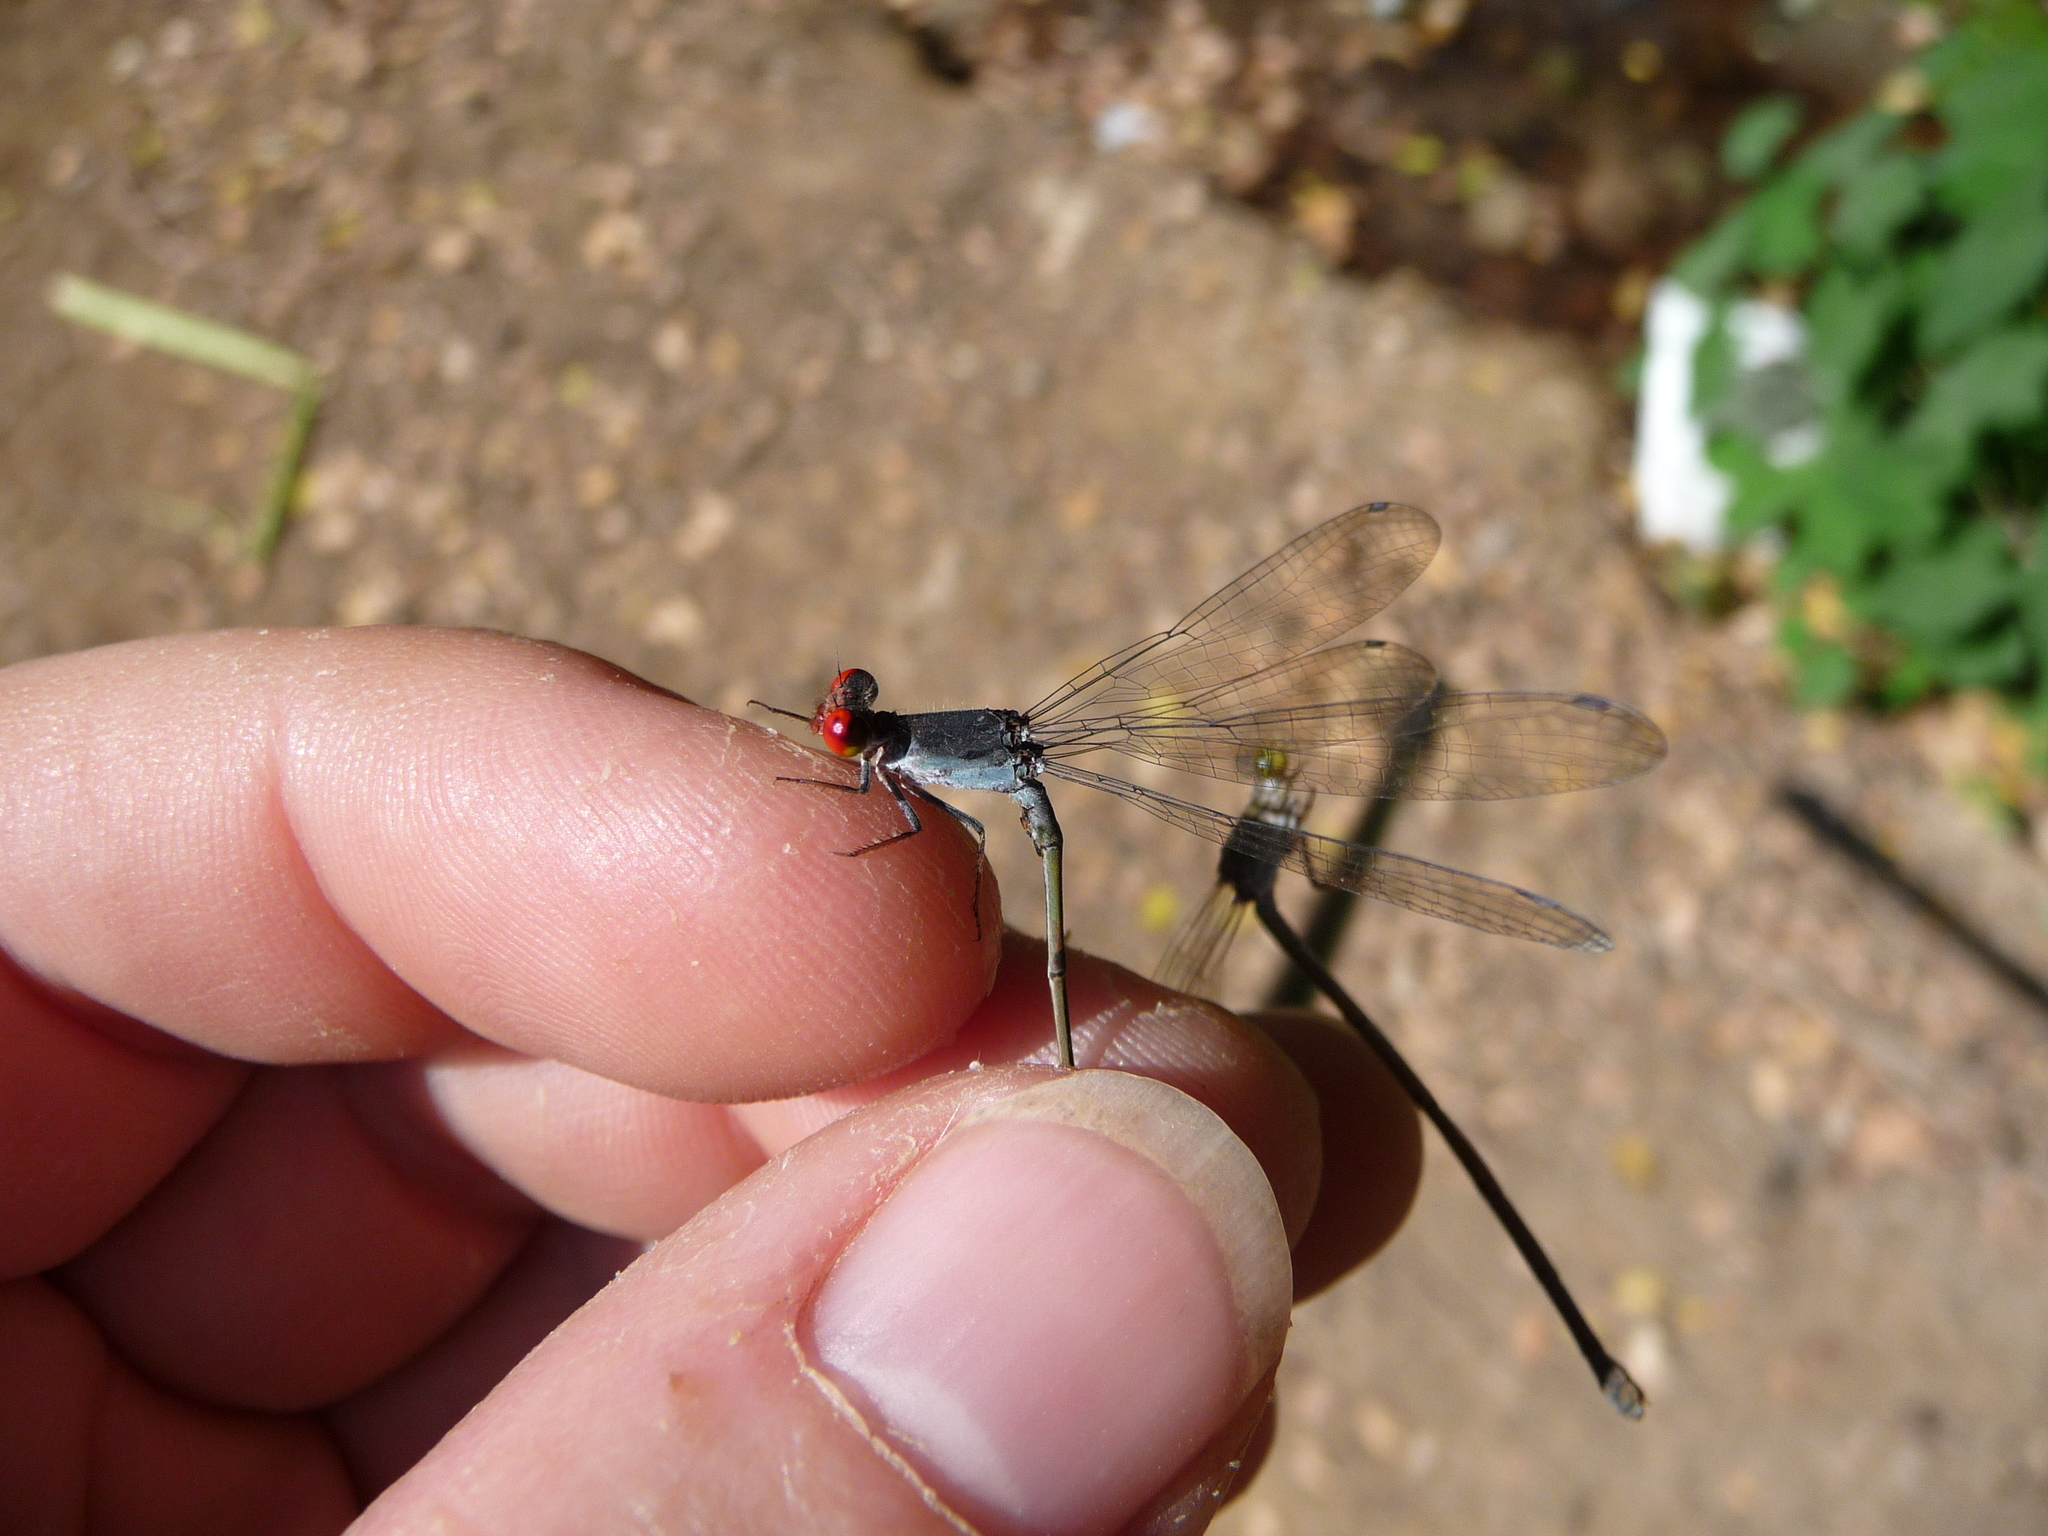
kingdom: Animalia
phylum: Arthropoda
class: Insecta
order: Odonata
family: Coenagrionidae
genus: Pseudagrion
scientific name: Pseudagrion sublacteum
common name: Cherry-eye sprite
